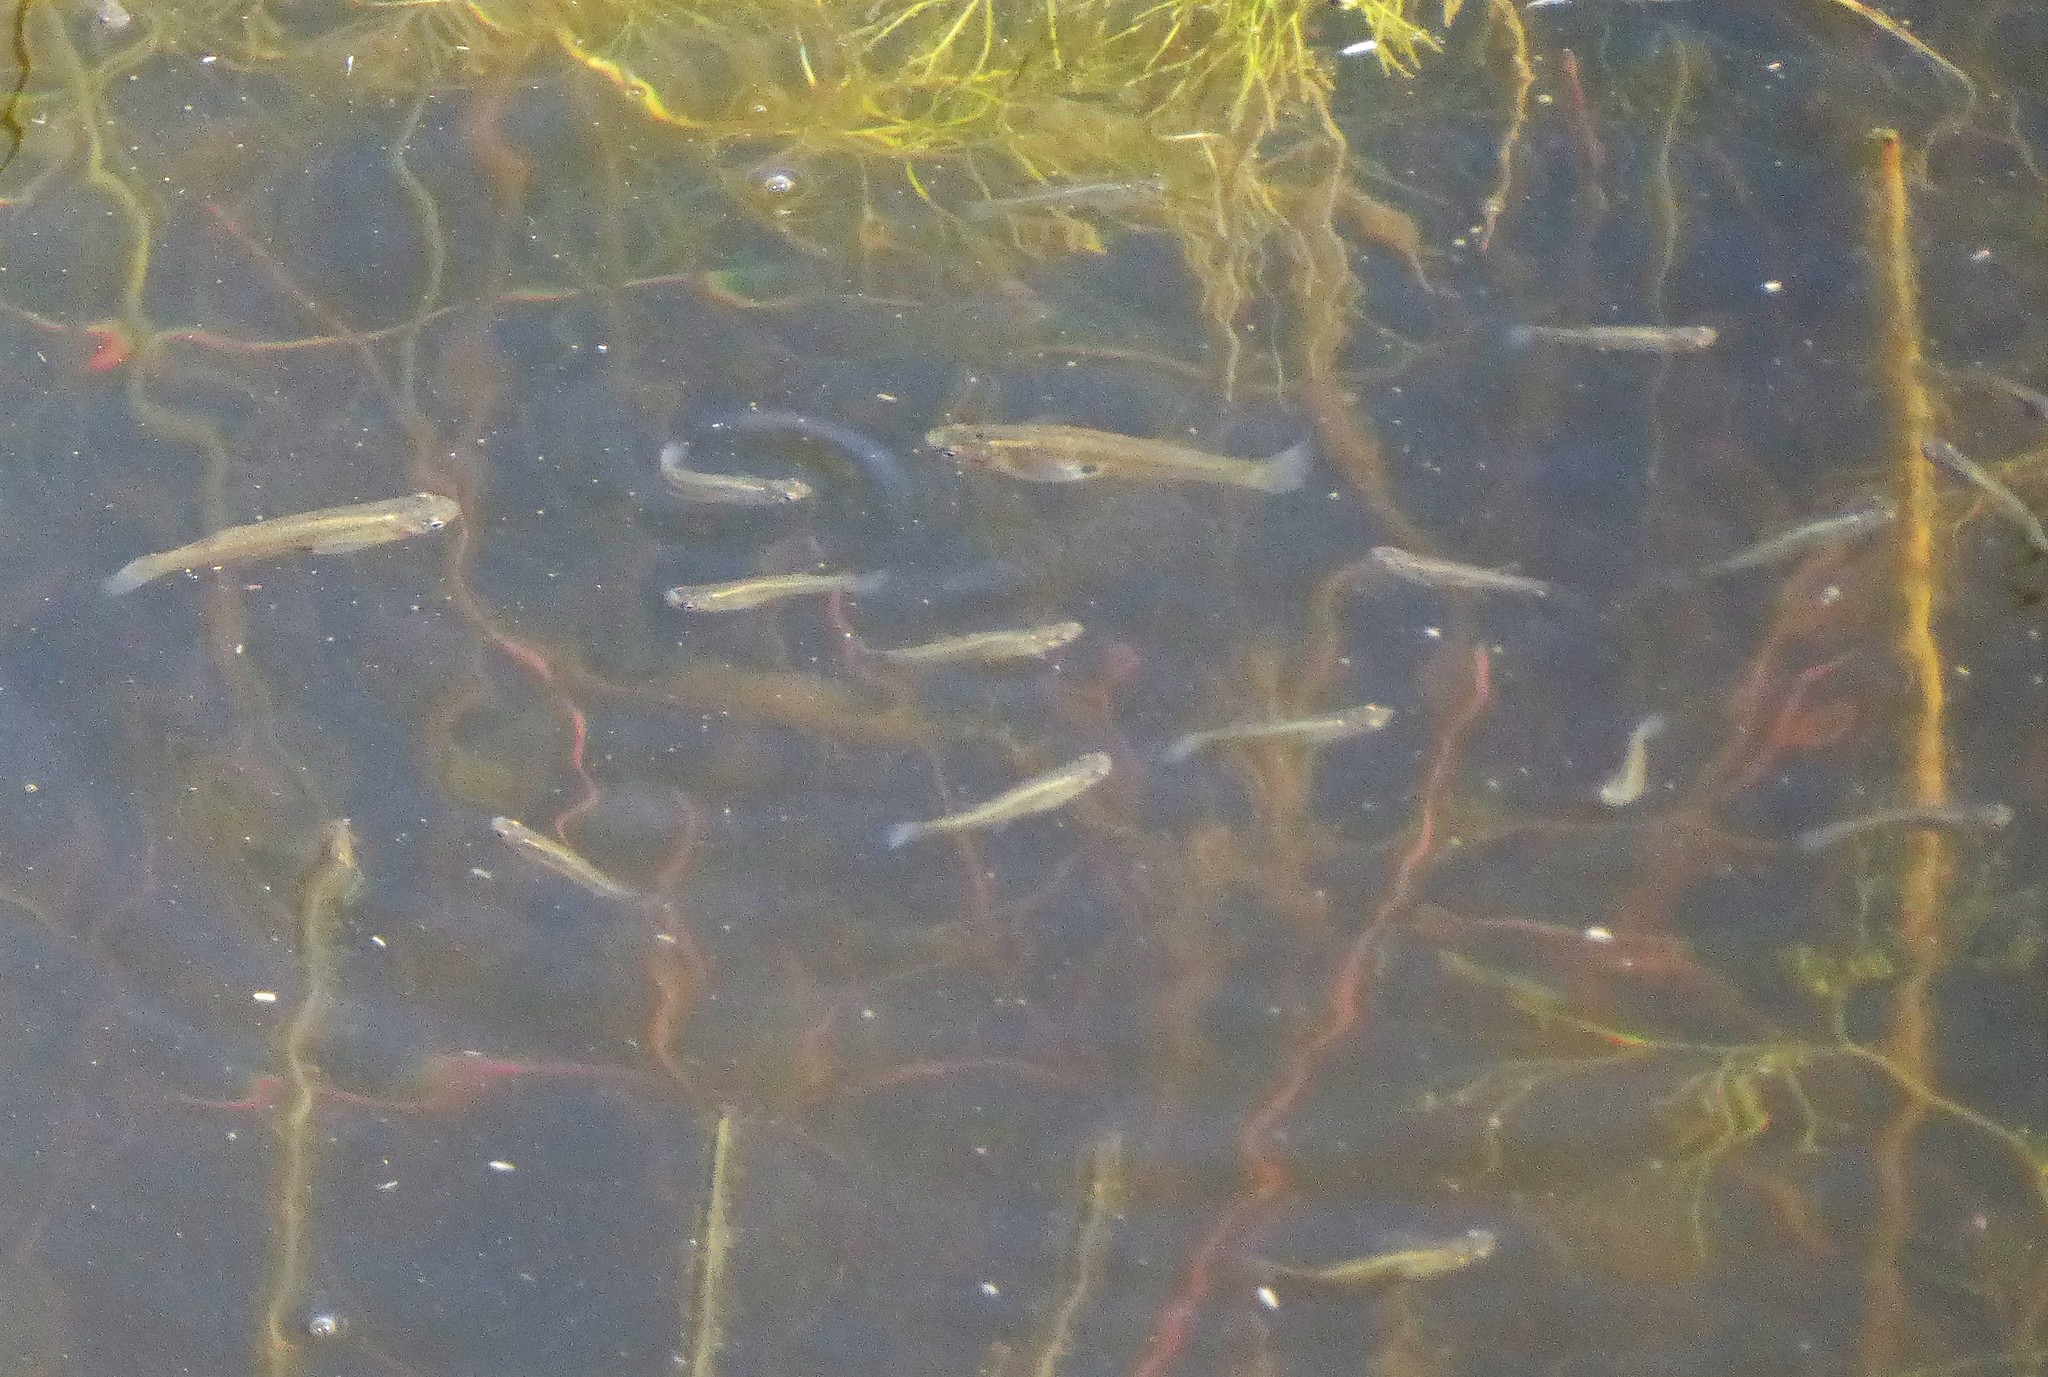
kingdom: Animalia
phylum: Chordata
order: Cyprinodontiformes
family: Poeciliidae
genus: Gambusia
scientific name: Gambusia affinis
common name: Mosquitofish
